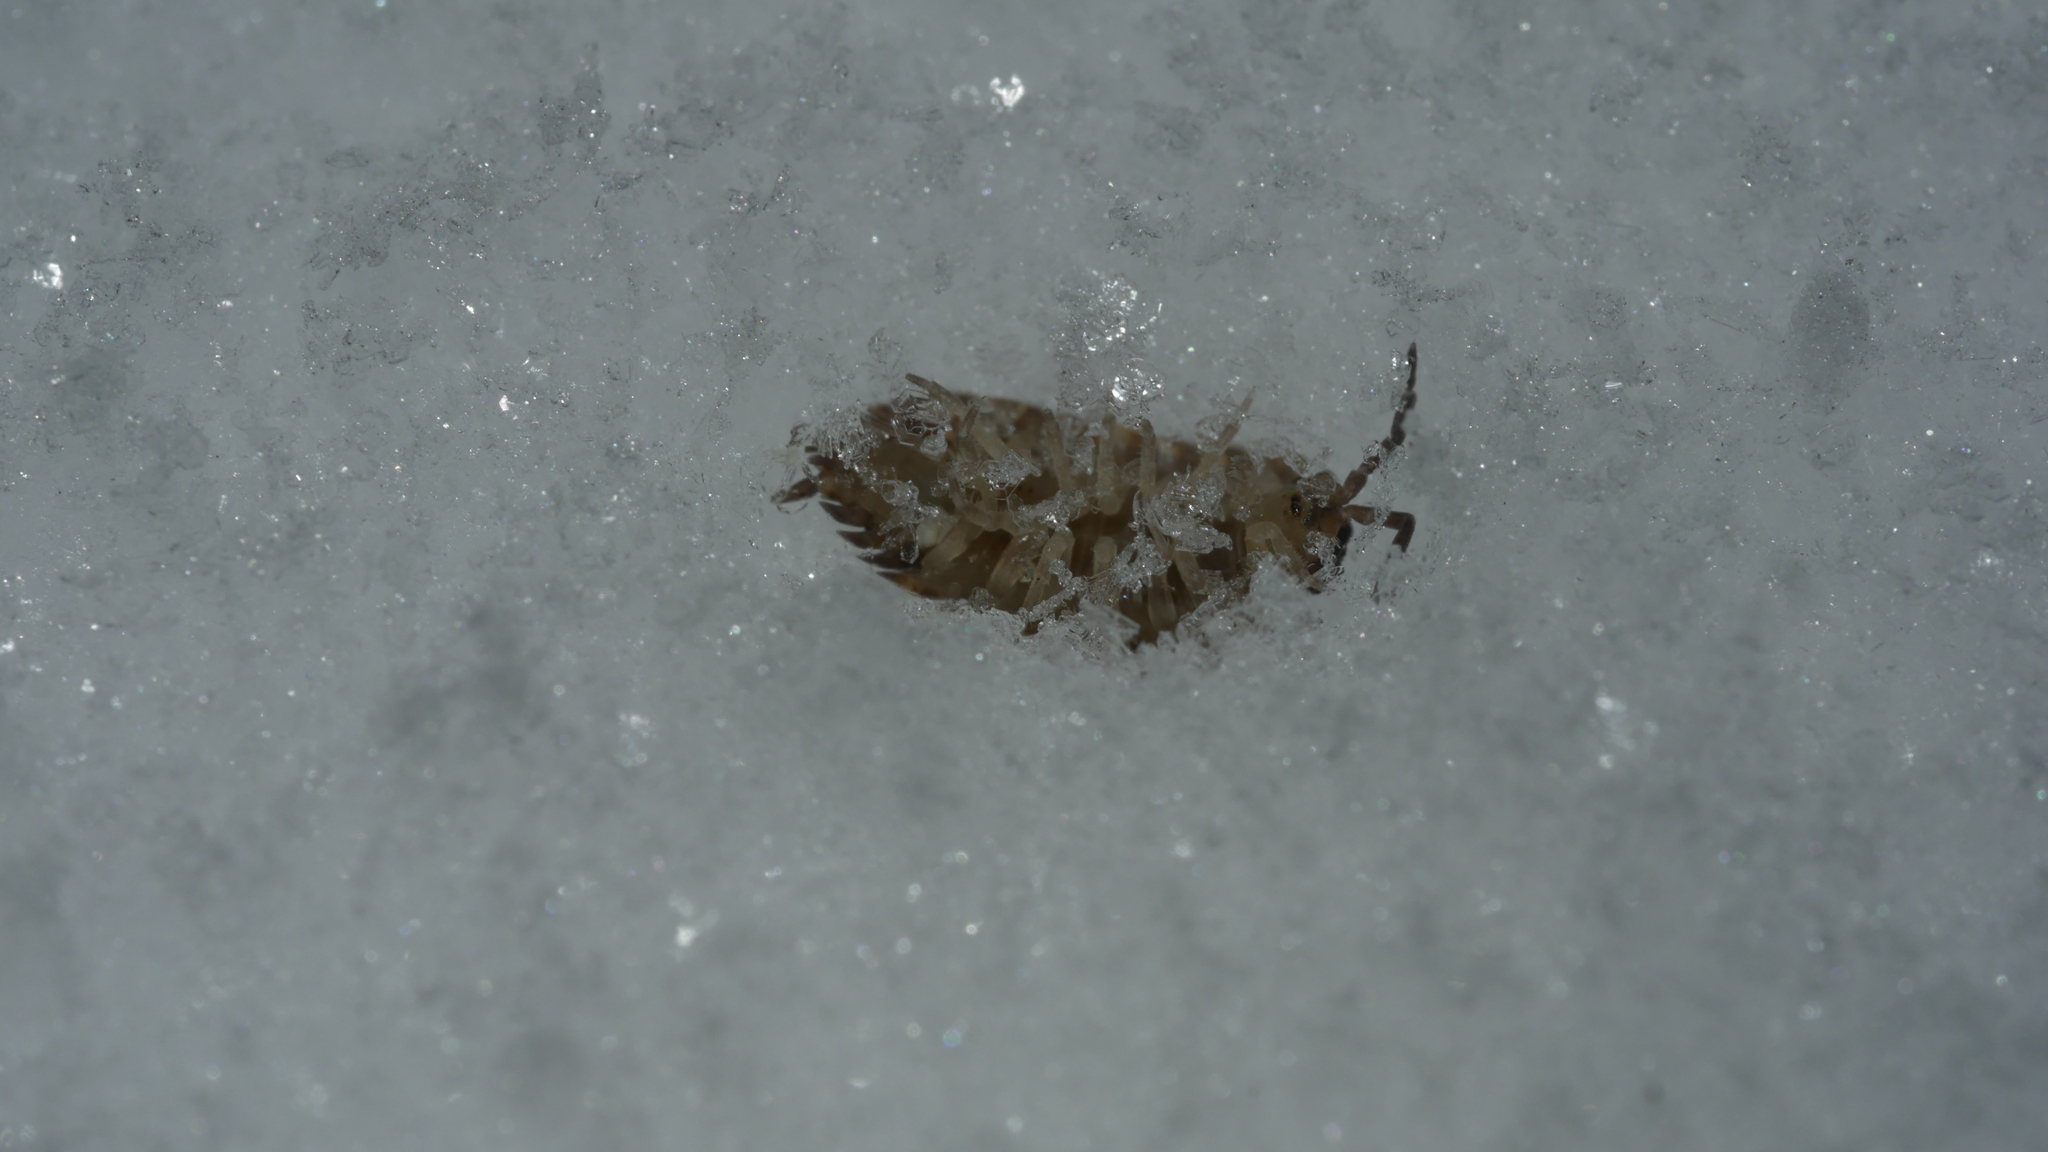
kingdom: Animalia
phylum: Arthropoda
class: Malacostraca
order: Isopoda
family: Porcellionidae
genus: Porcellio
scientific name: Porcellio scaber
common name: Common rough woodlouse
